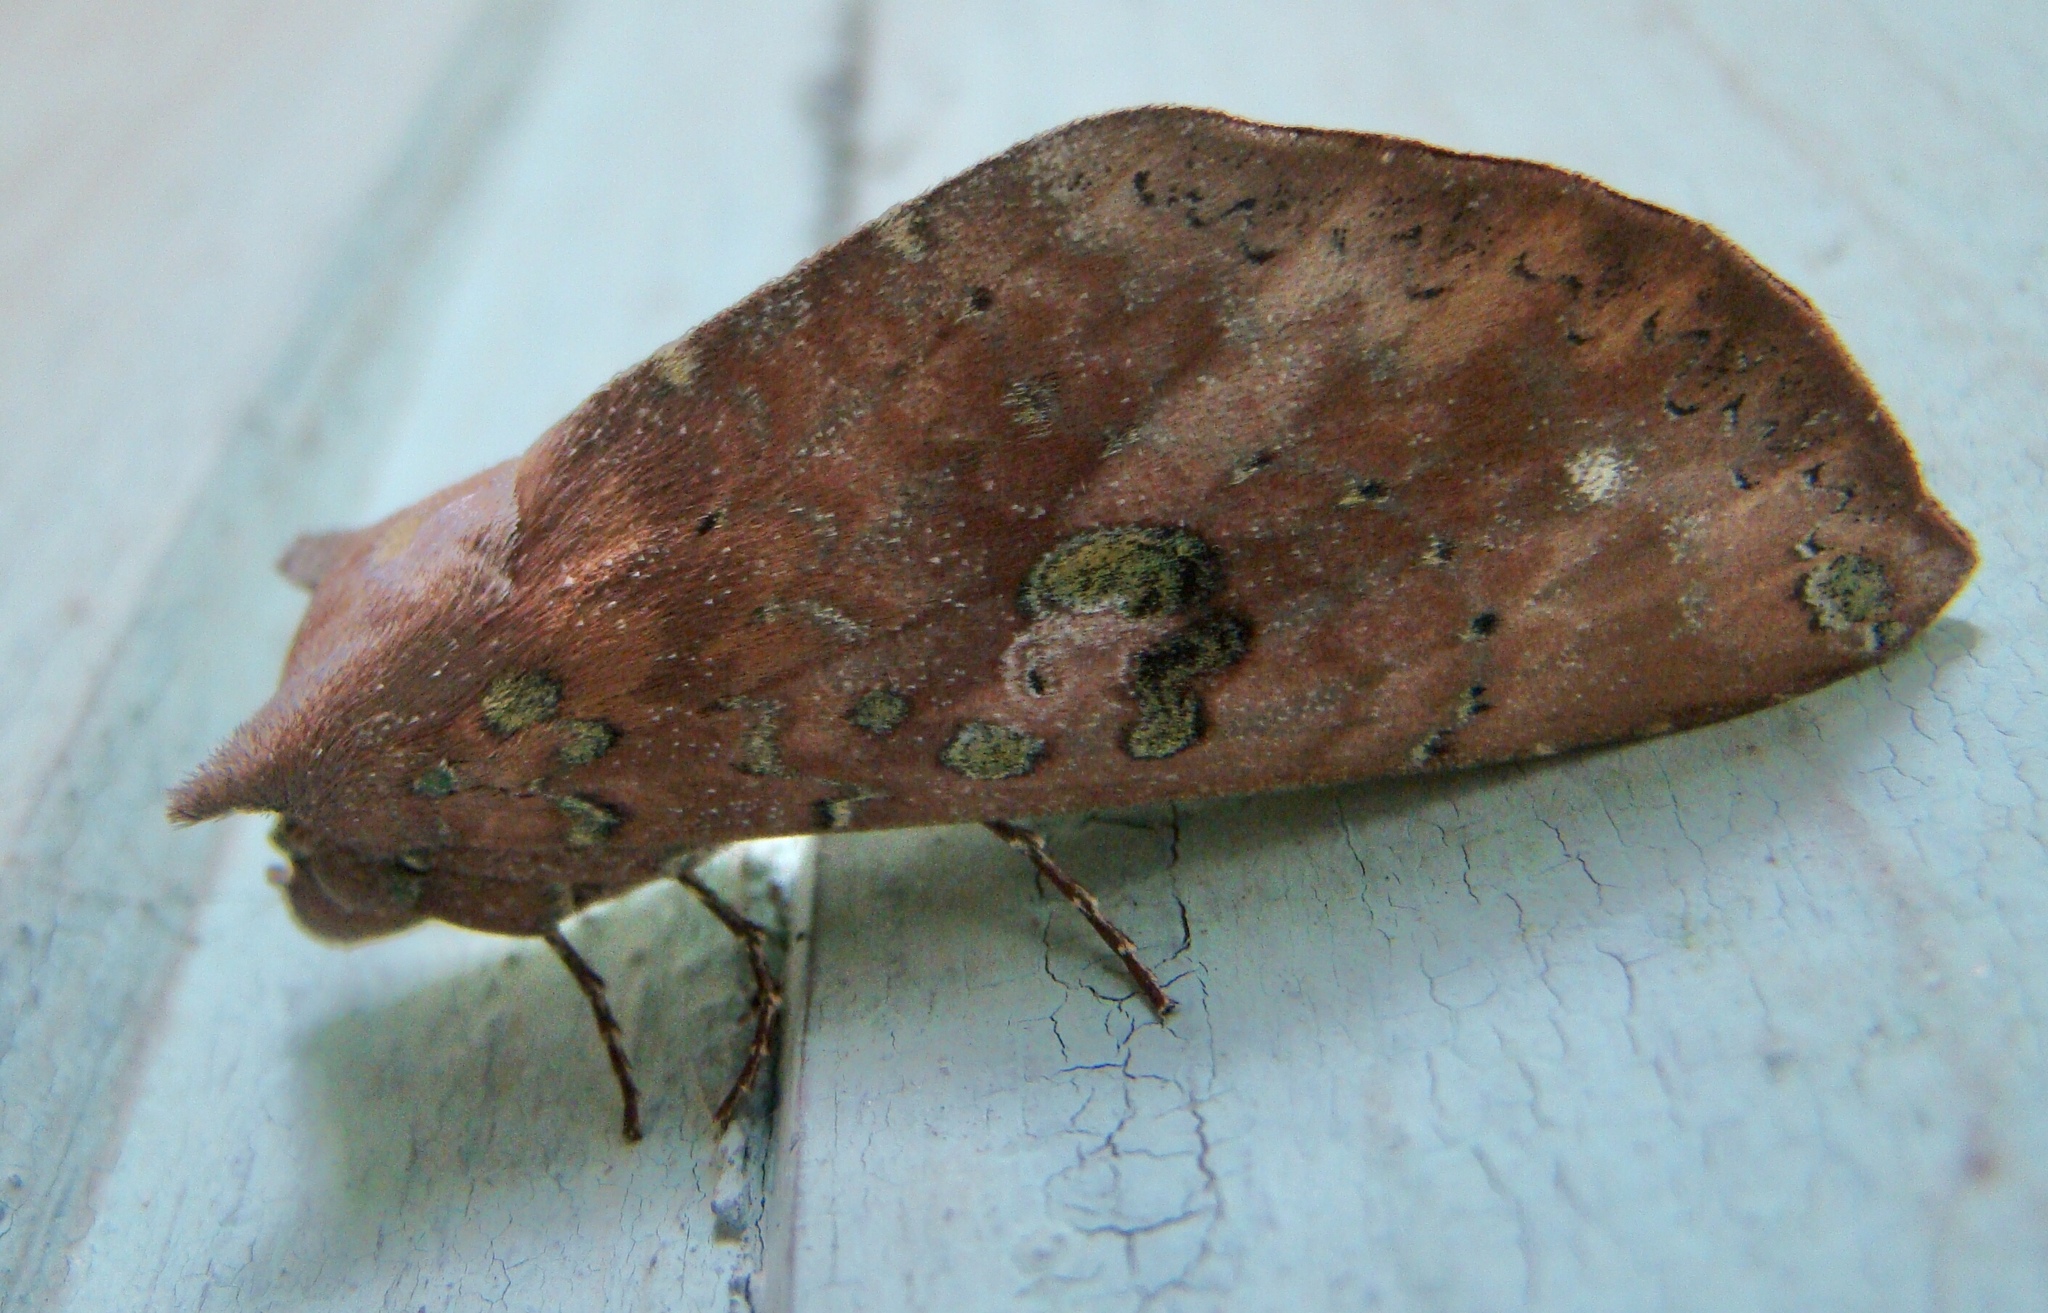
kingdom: Animalia
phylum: Arthropoda
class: Insecta
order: Lepidoptera
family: Notodontidae
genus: Hapigia
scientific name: Hapigia repandens
